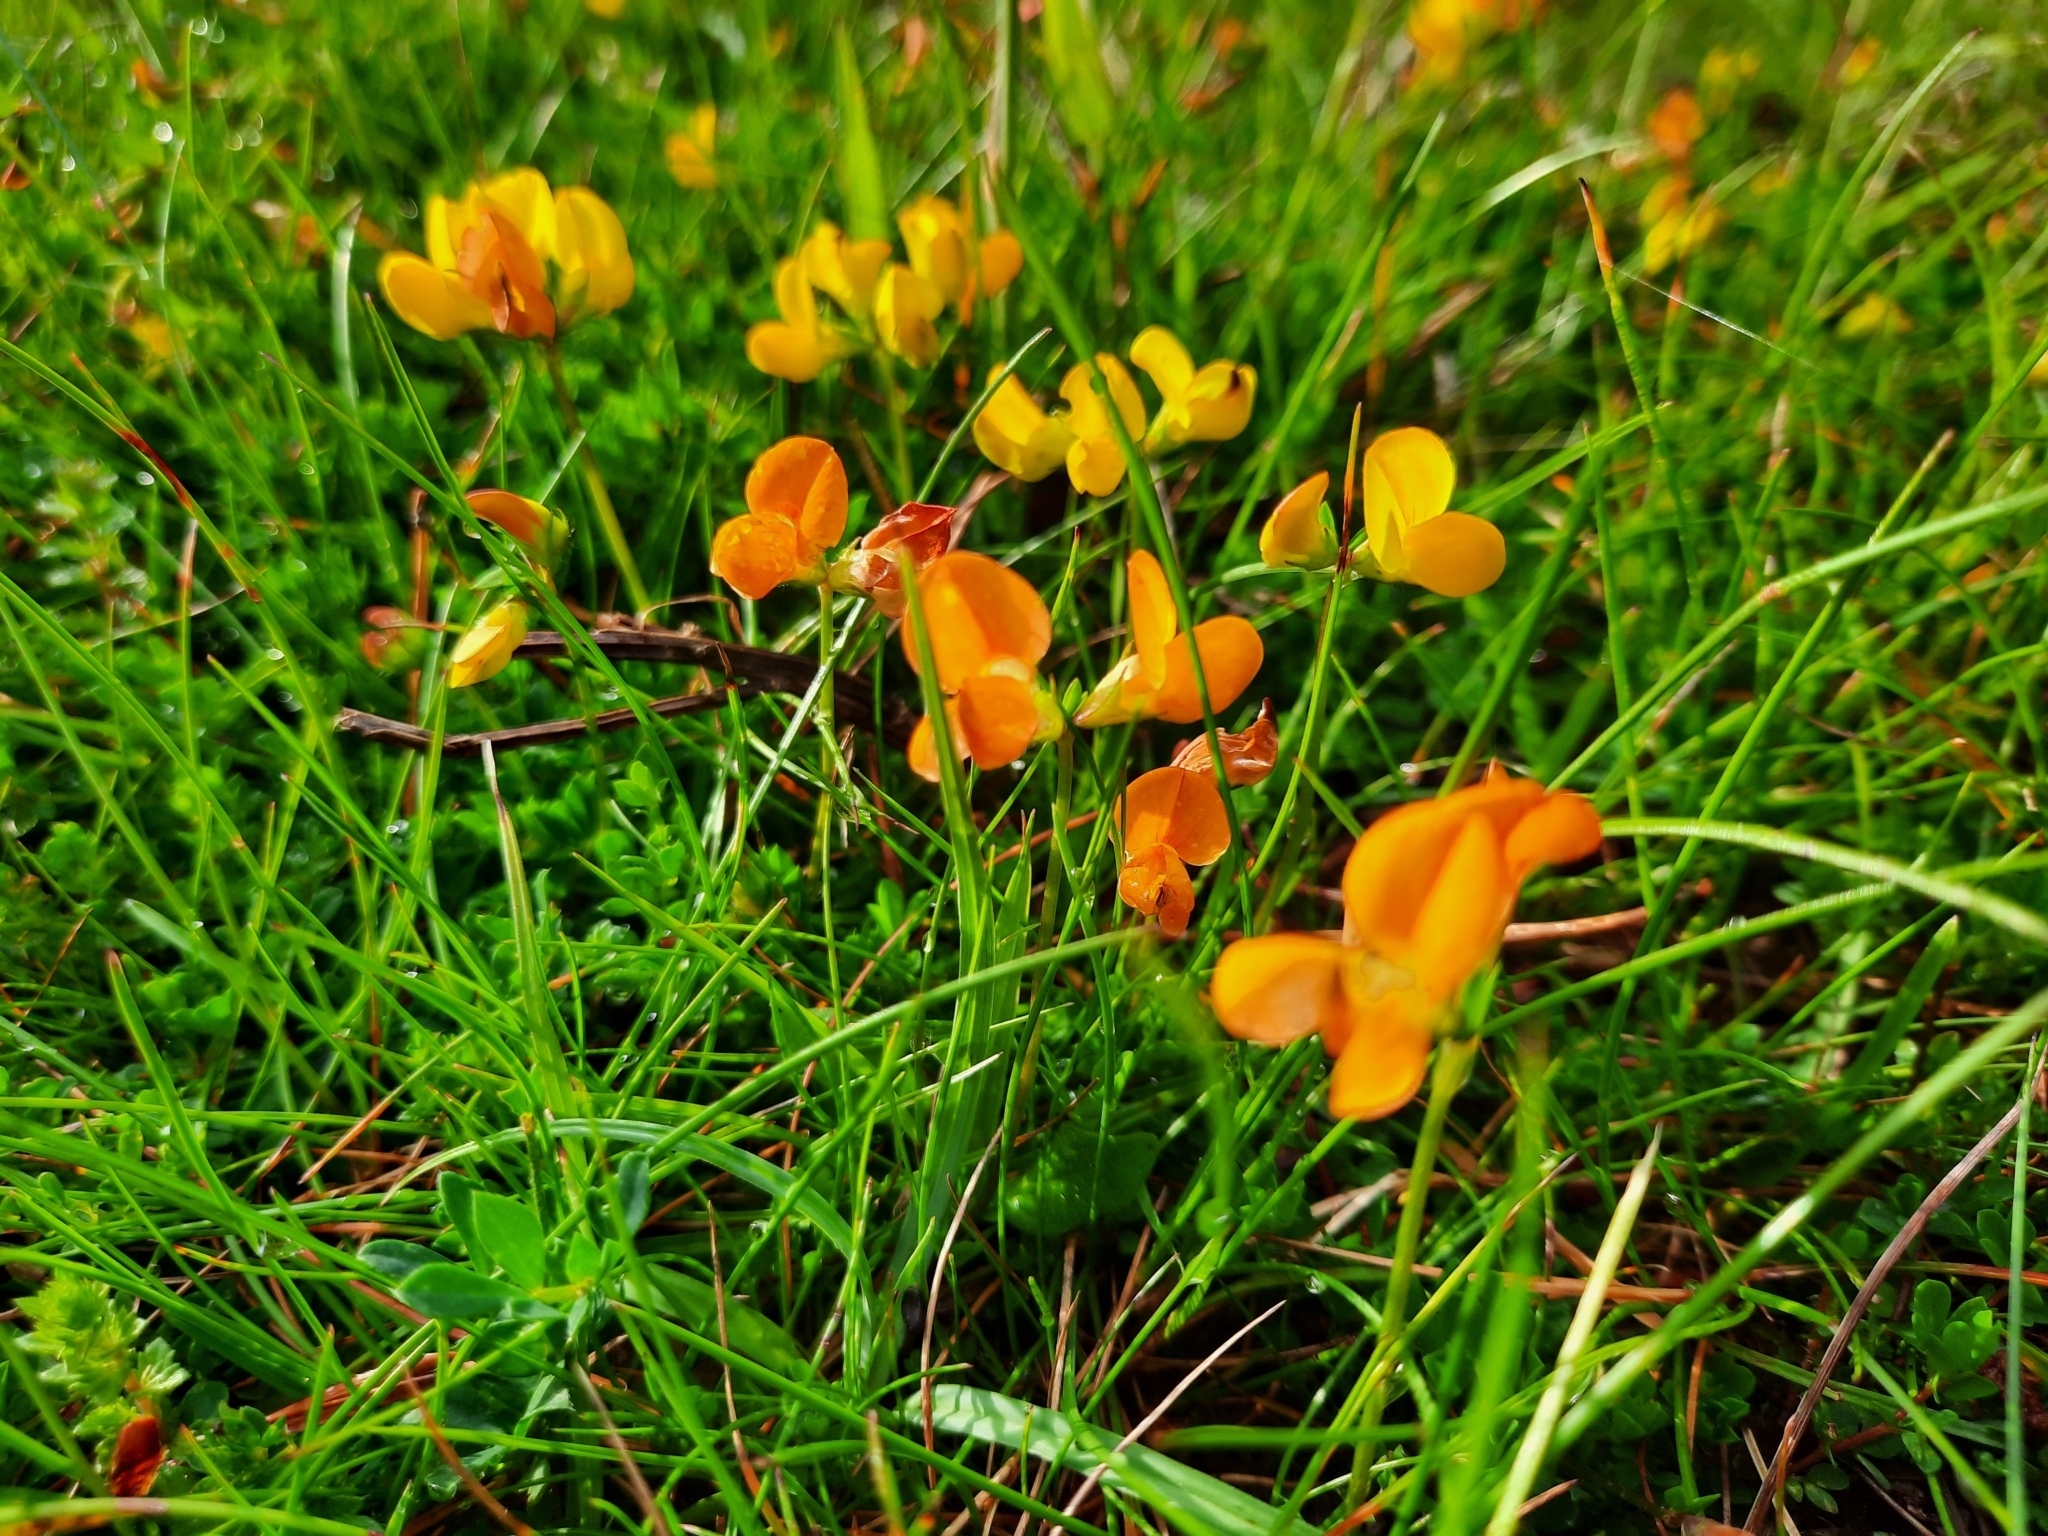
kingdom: Plantae
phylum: Tracheophyta
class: Magnoliopsida
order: Fabales
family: Fabaceae
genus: Lotus
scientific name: Lotus corniculatus
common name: Common bird's-foot-trefoil
